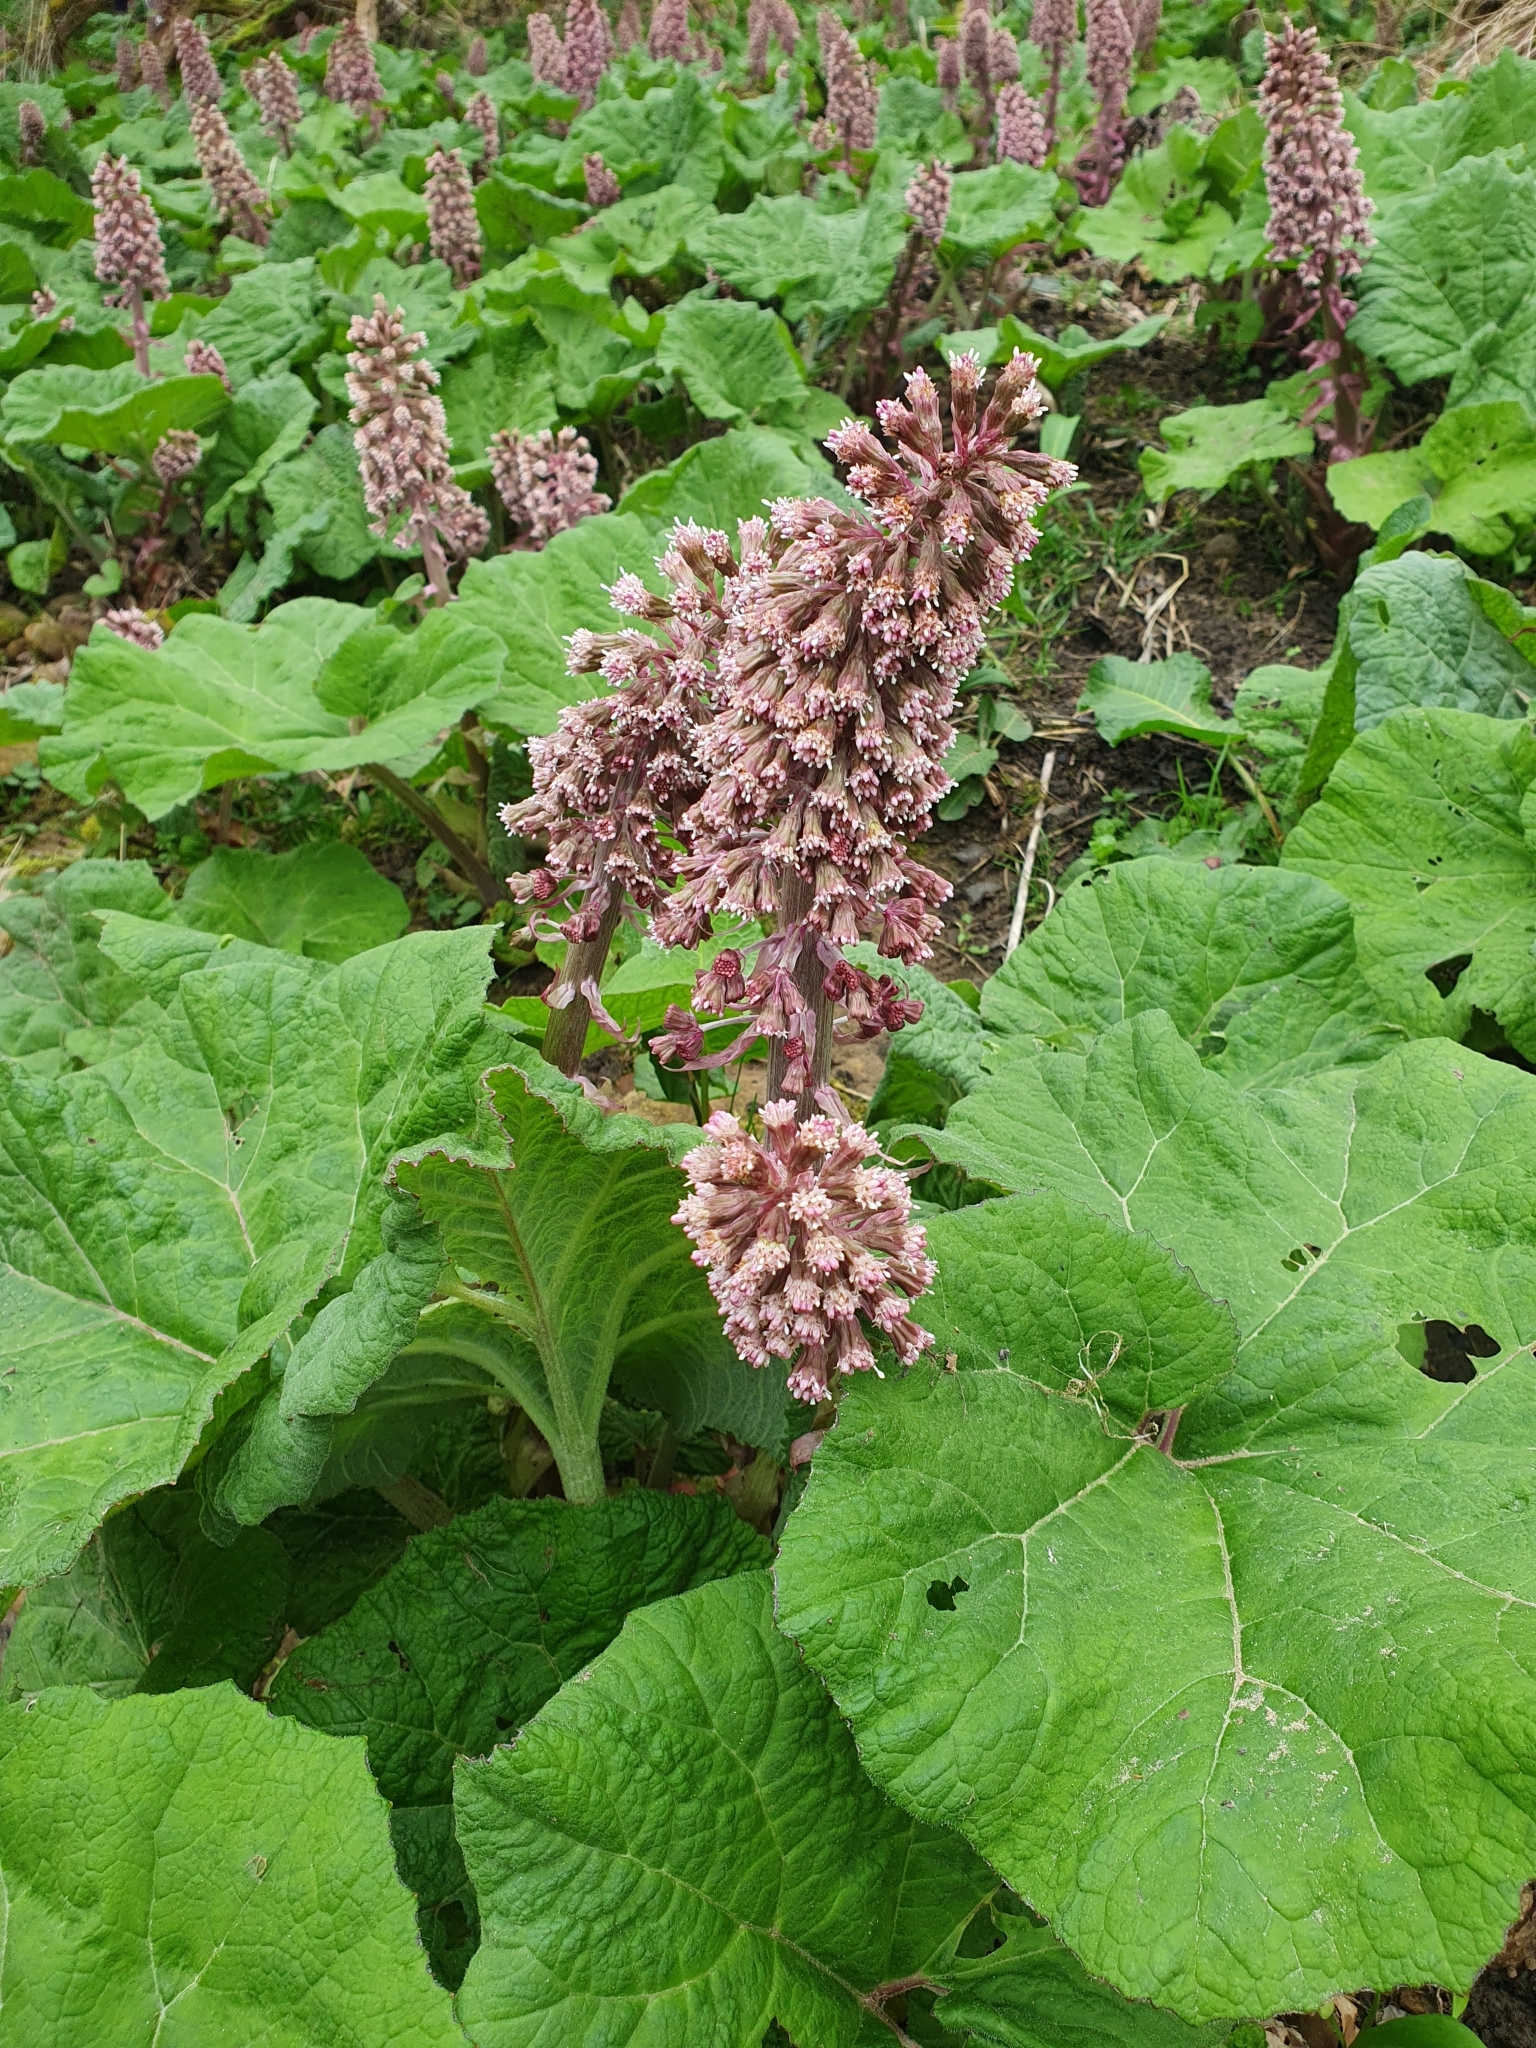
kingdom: Plantae
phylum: Tracheophyta
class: Magnoliopsida
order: Asterales
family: Asteraceae
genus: Petasites
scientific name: Petasites hybridus
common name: Butterbur
